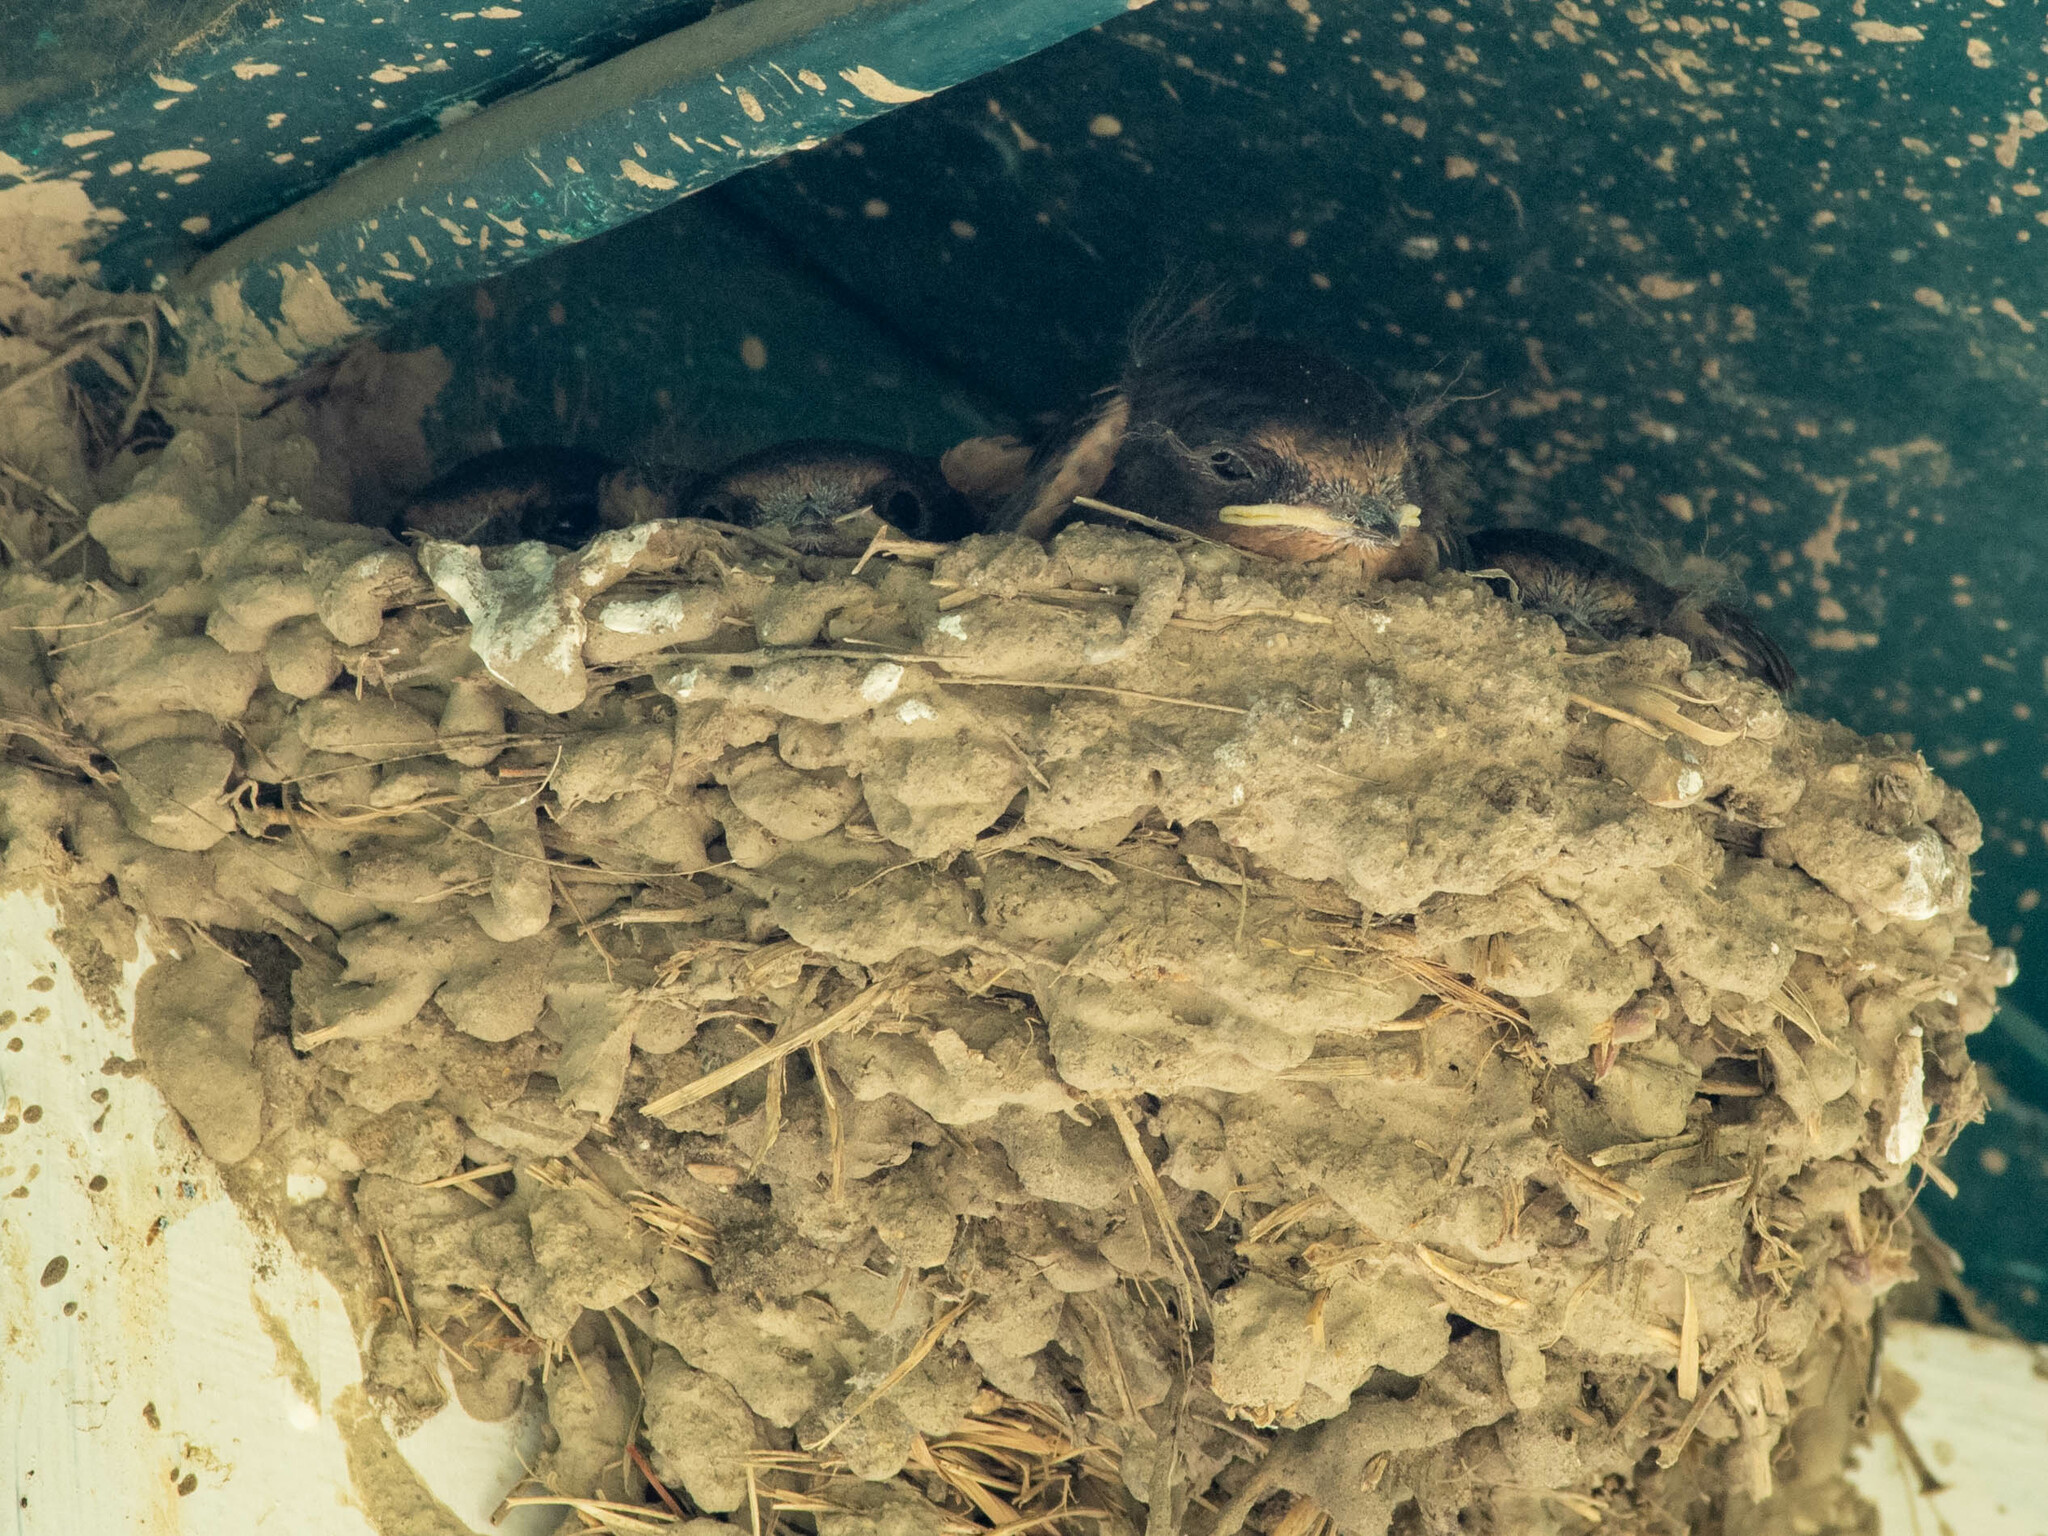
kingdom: Animalia
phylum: Chordata
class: Aves
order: Passeriformes
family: Hirundinidae
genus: Hirundo
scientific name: Hirundo rustica
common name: Barn swallow
